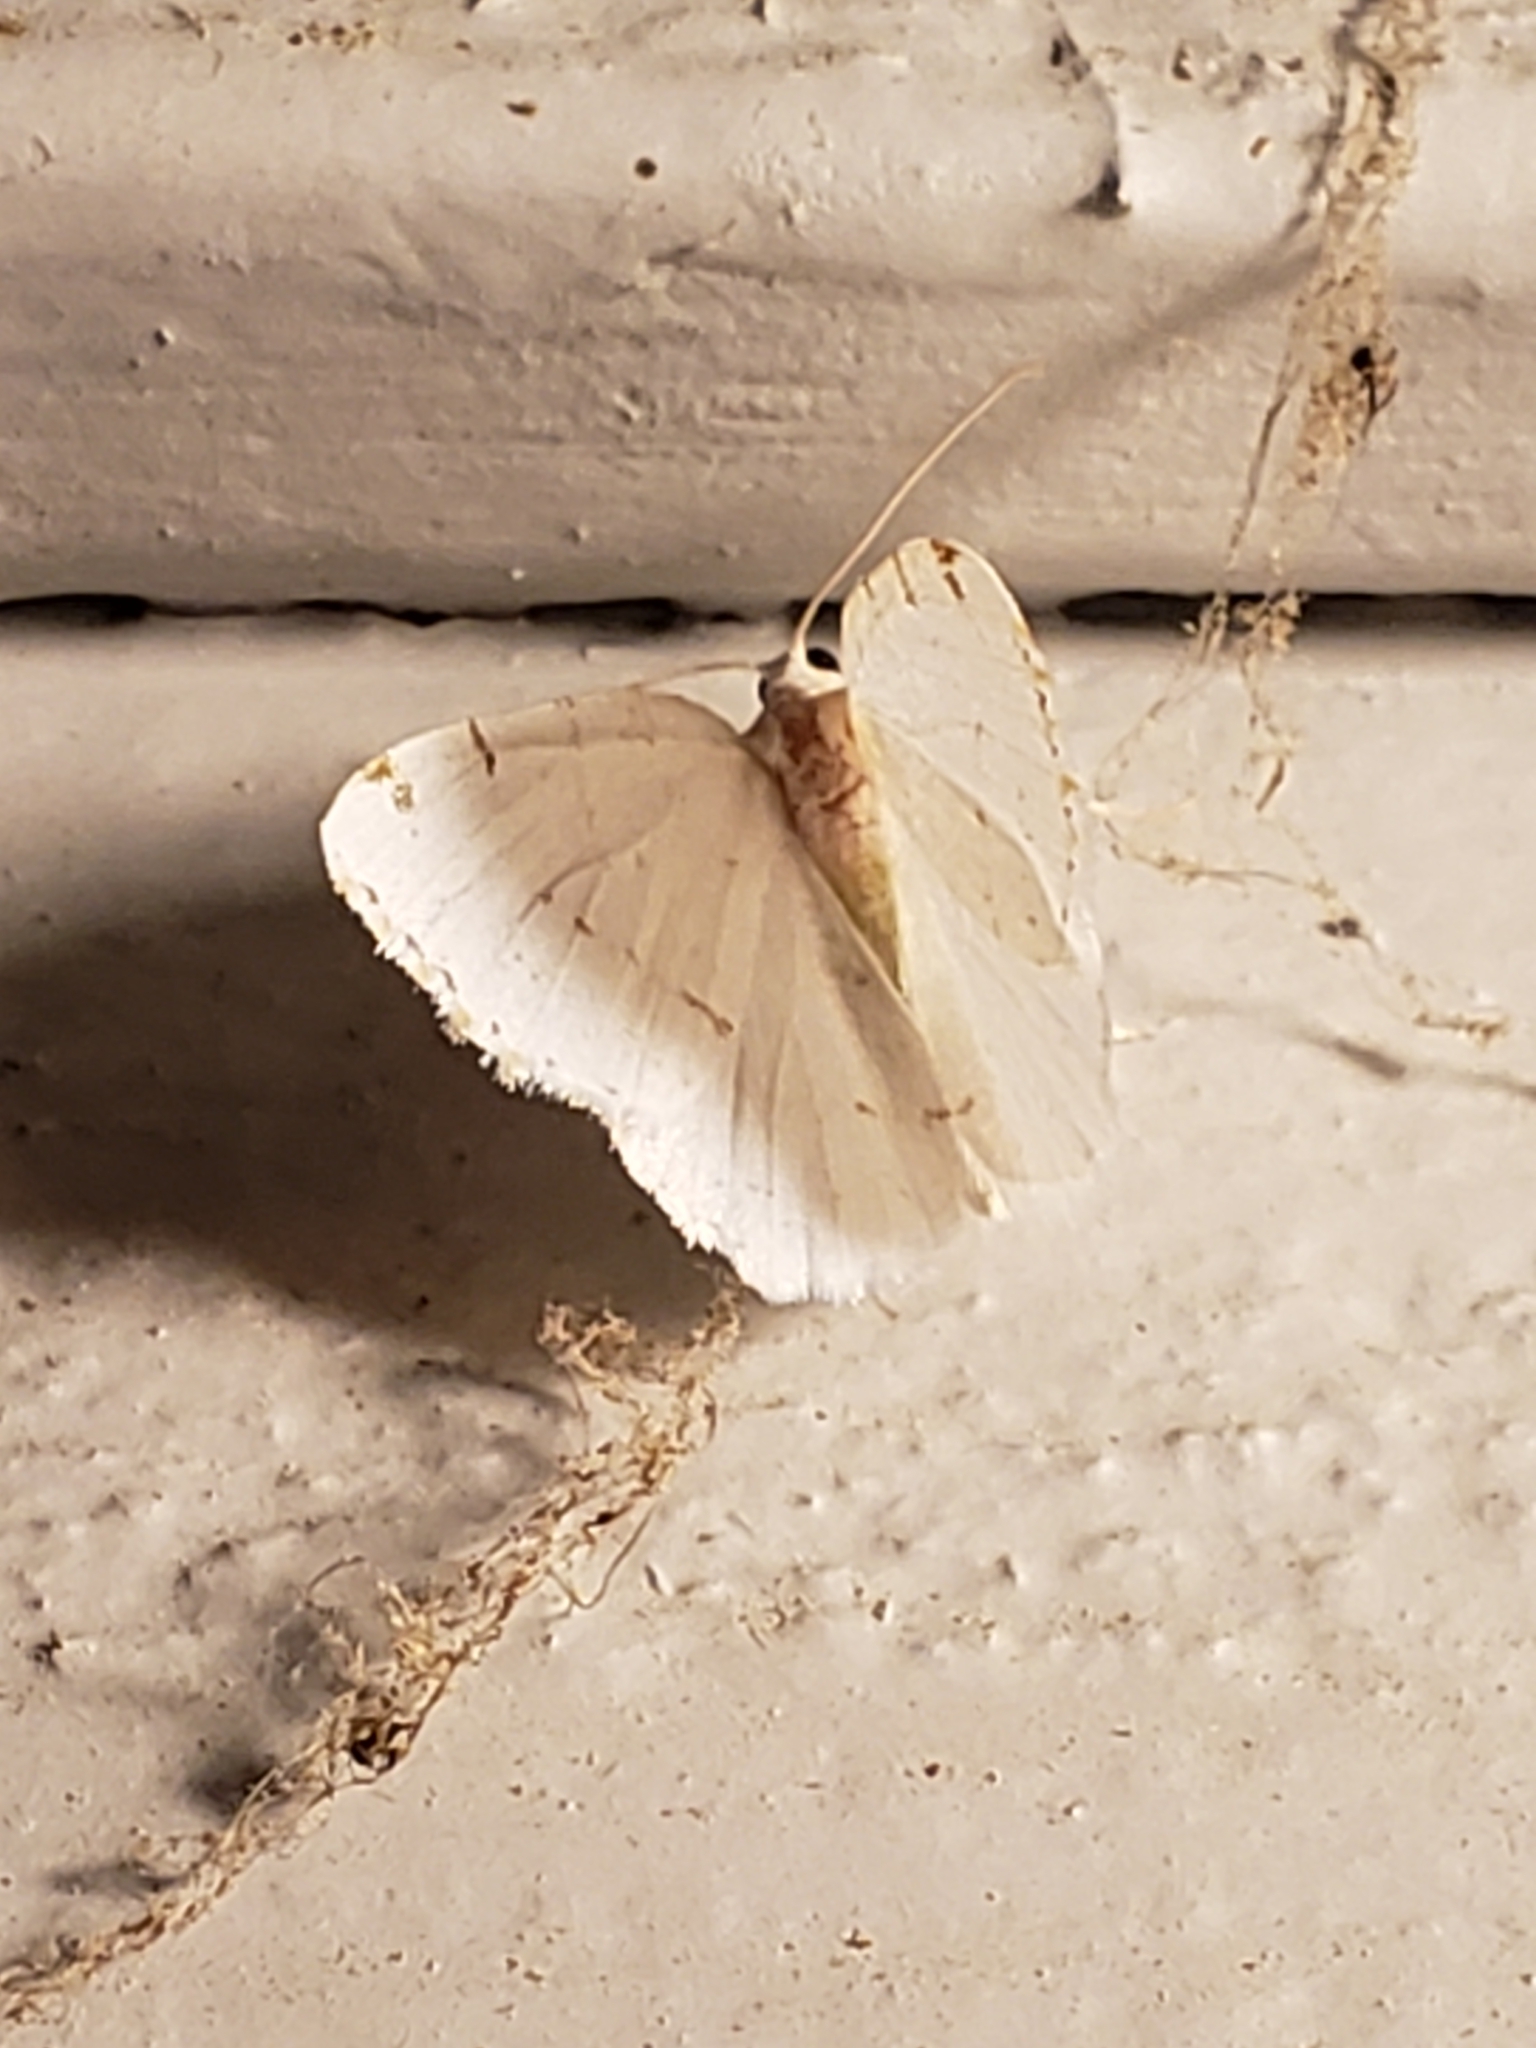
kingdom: Animalia
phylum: Arthropoda
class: Insecta
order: Lepidoptera
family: Geometridae
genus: Macaria
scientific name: Macaria pustularia
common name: Lesser maple spanworm moth
